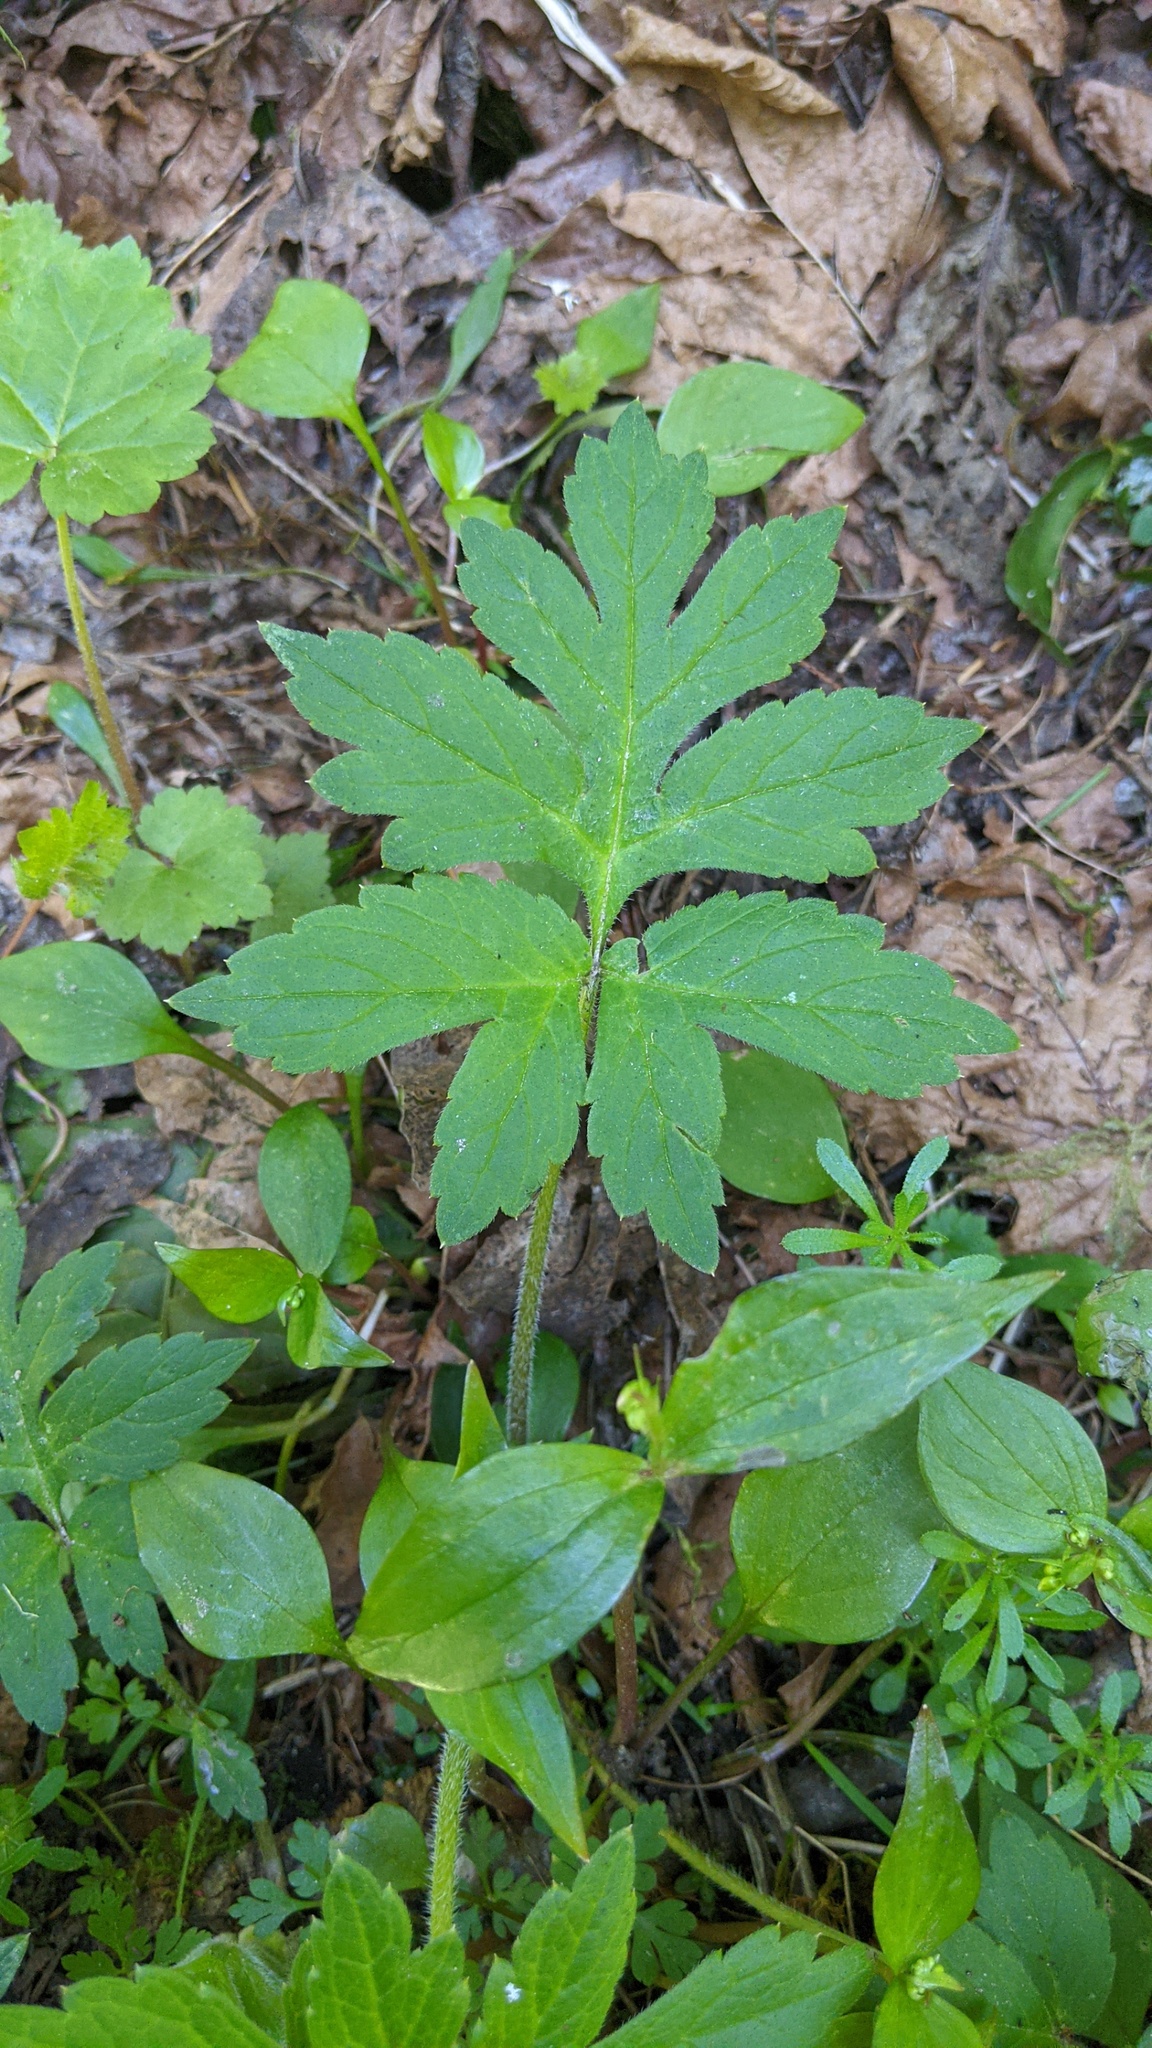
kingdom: Plantae
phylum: Tracheophyta
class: Magnoliopsida
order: Boraginales
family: Hydrophyllaceae
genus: Hydrophyllum
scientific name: Hydrophyllum tenuipes
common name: Pacific waterleaf
